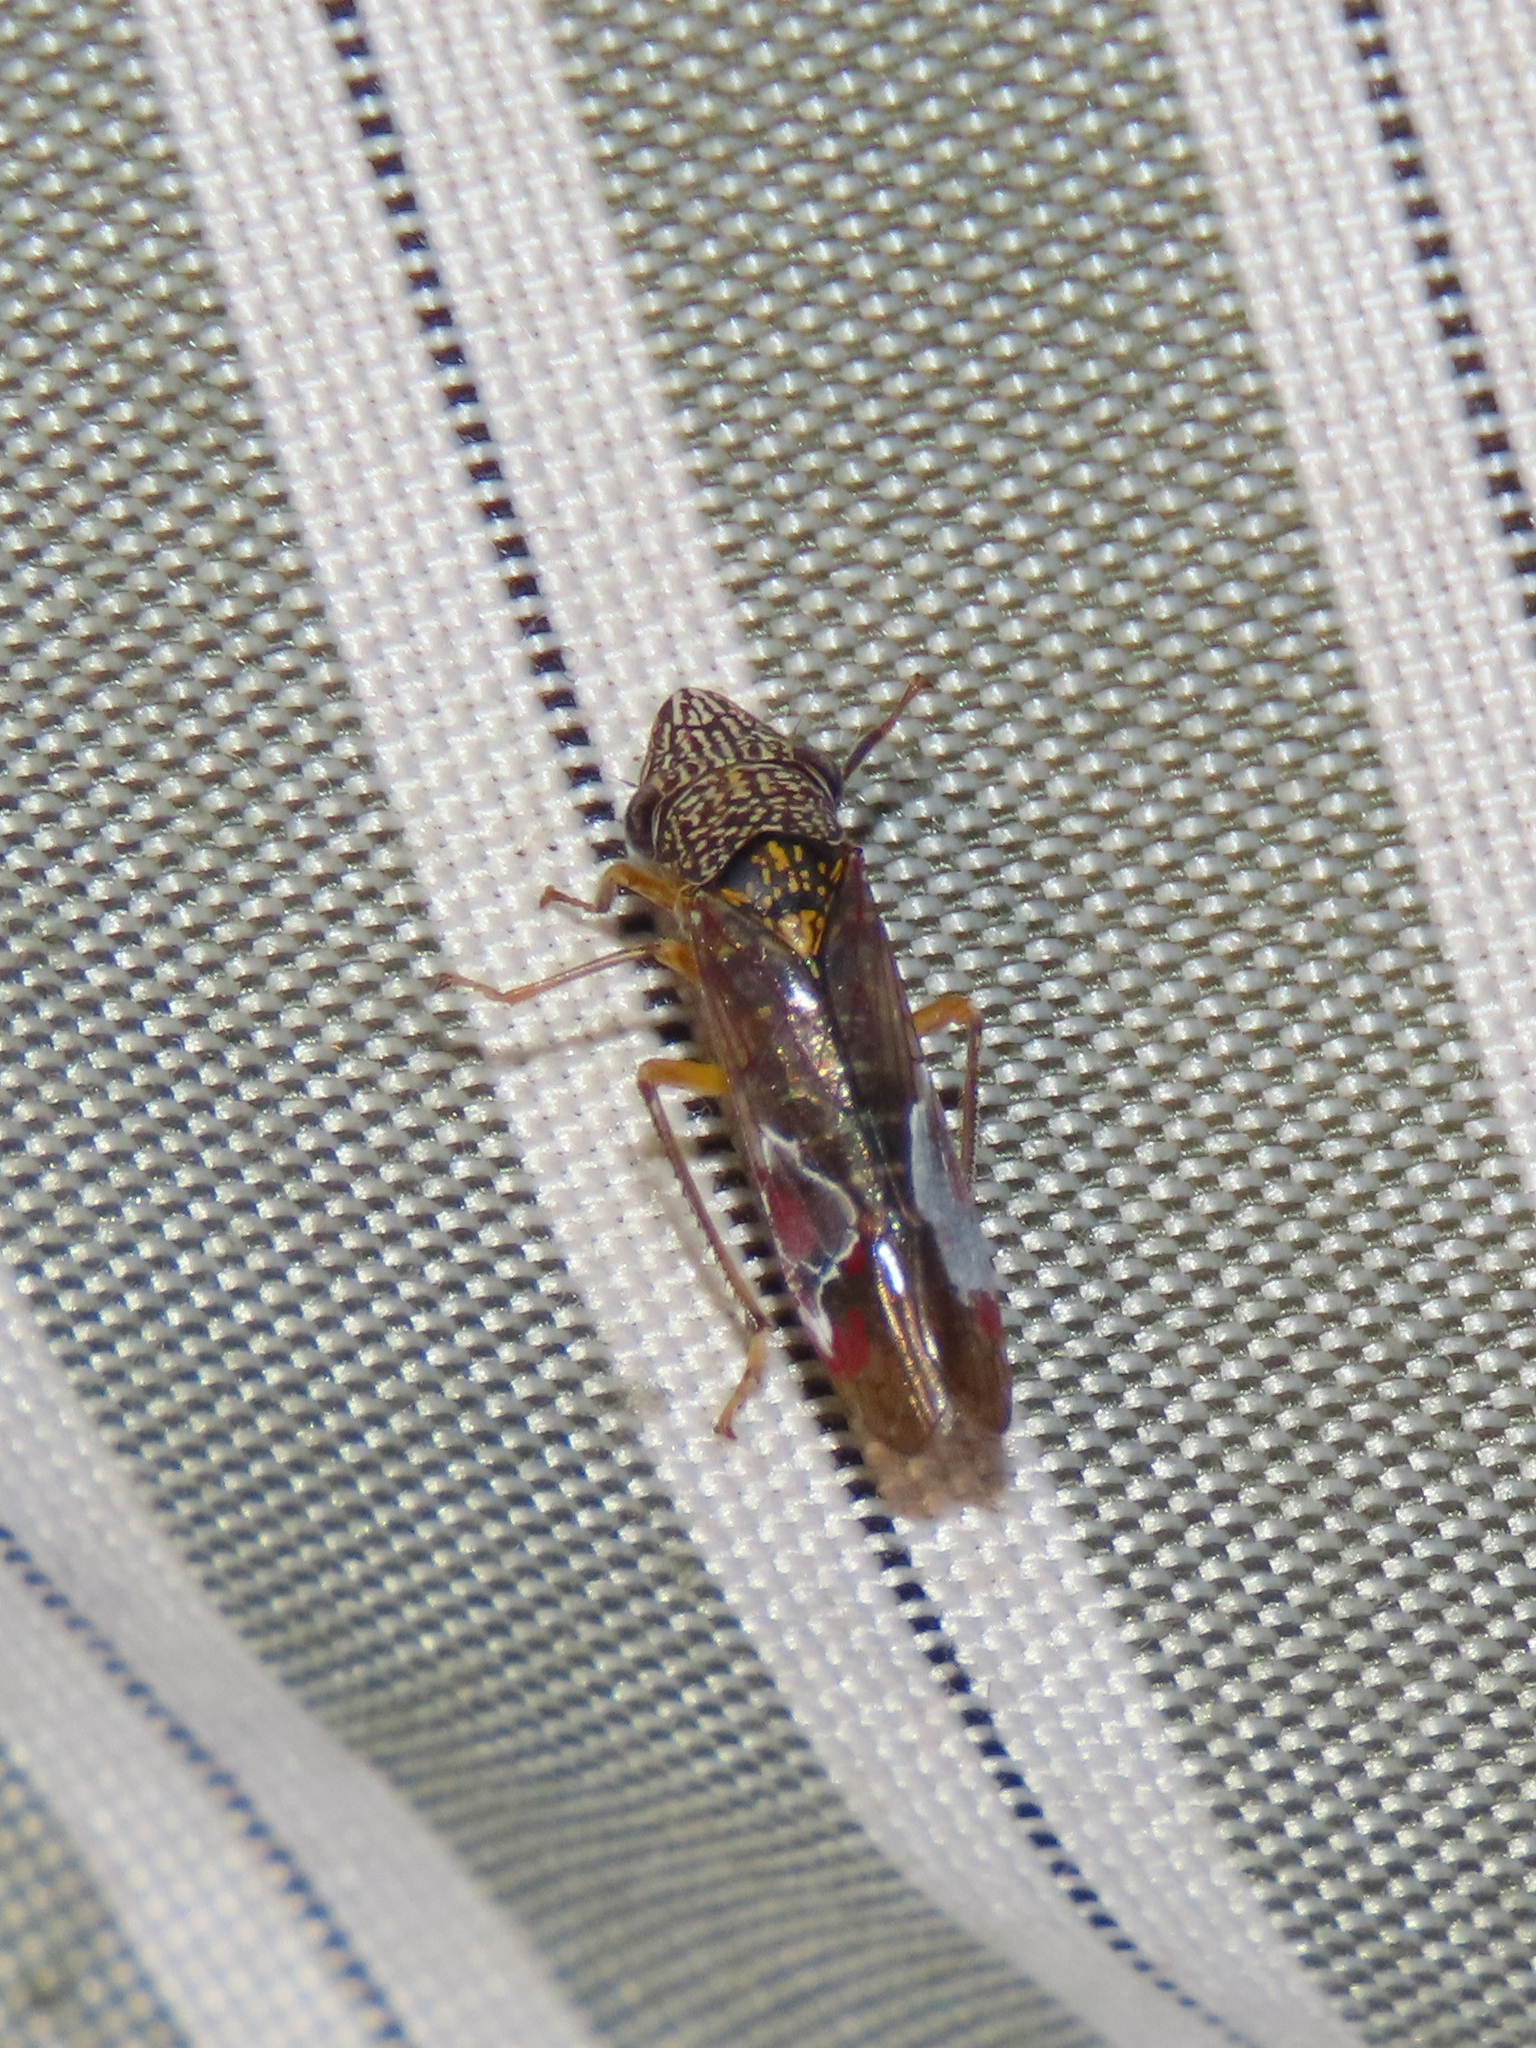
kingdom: Animalia
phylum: Arthropoda
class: Insecta
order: Hemiptera
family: Cicadellidae
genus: Homalodisca
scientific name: Homalodisca liturata
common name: Lacertate sharpshooter
